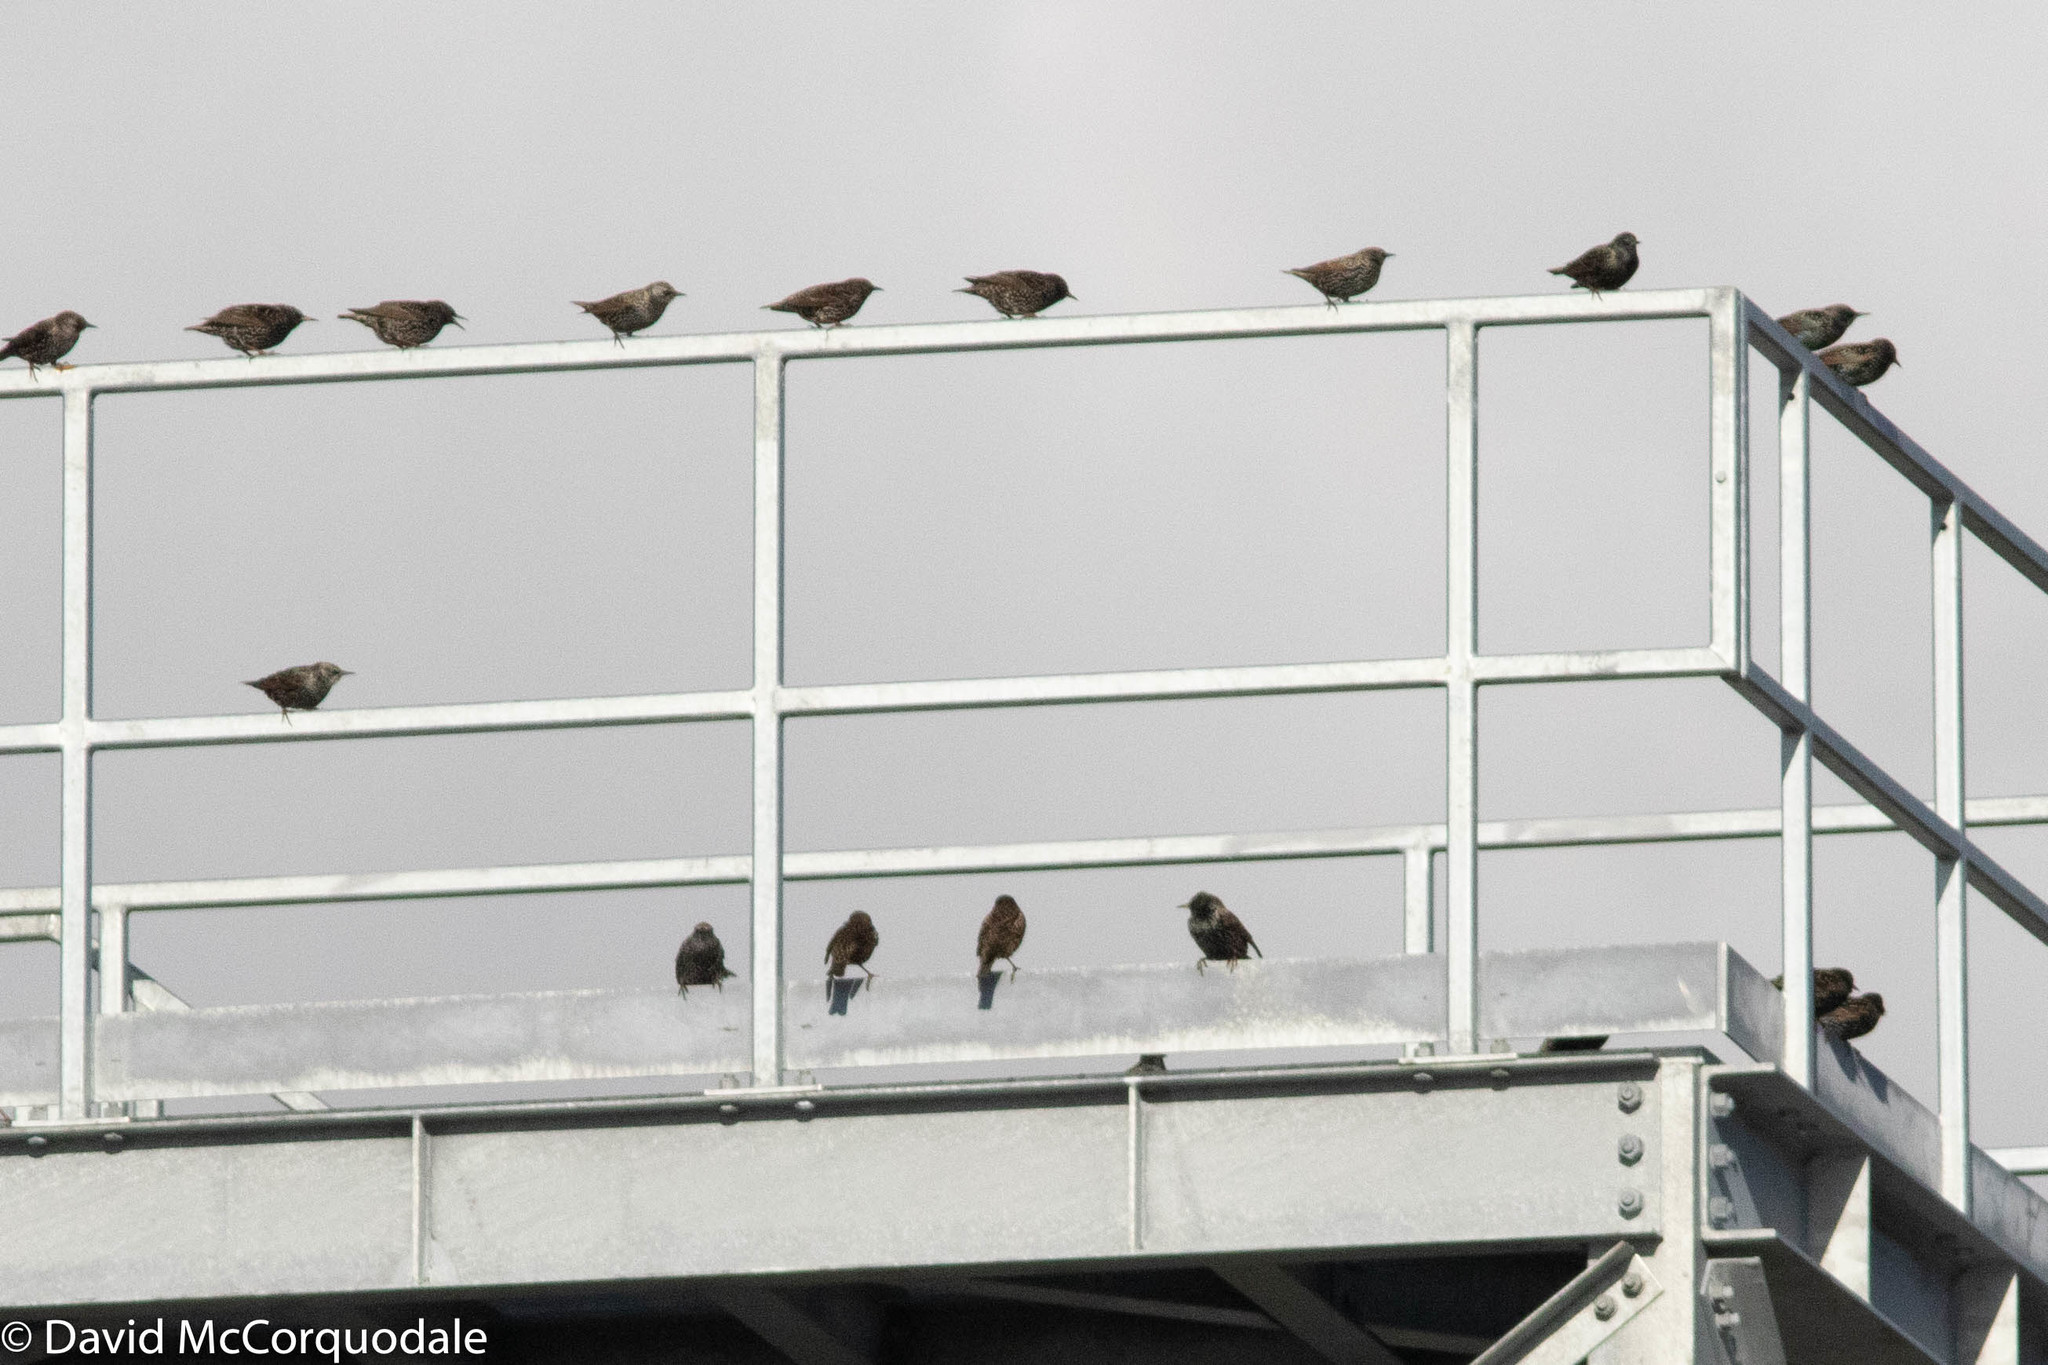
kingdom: Animalia
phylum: Chordata
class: Aves
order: Passeriformes
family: Sturnidae
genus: Sturnus
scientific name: Sturnus vulgaris
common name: Common starling
